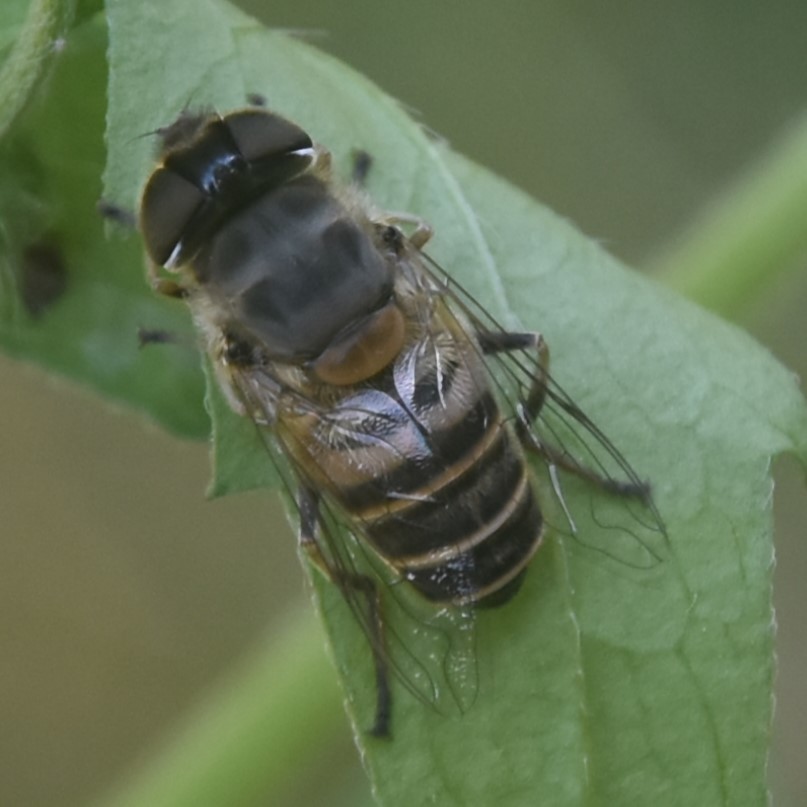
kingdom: Animalia
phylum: Arthropoda
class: Insecta
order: Diptera
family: Syrphidae
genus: Eristalis
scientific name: Eristalis cerealis
